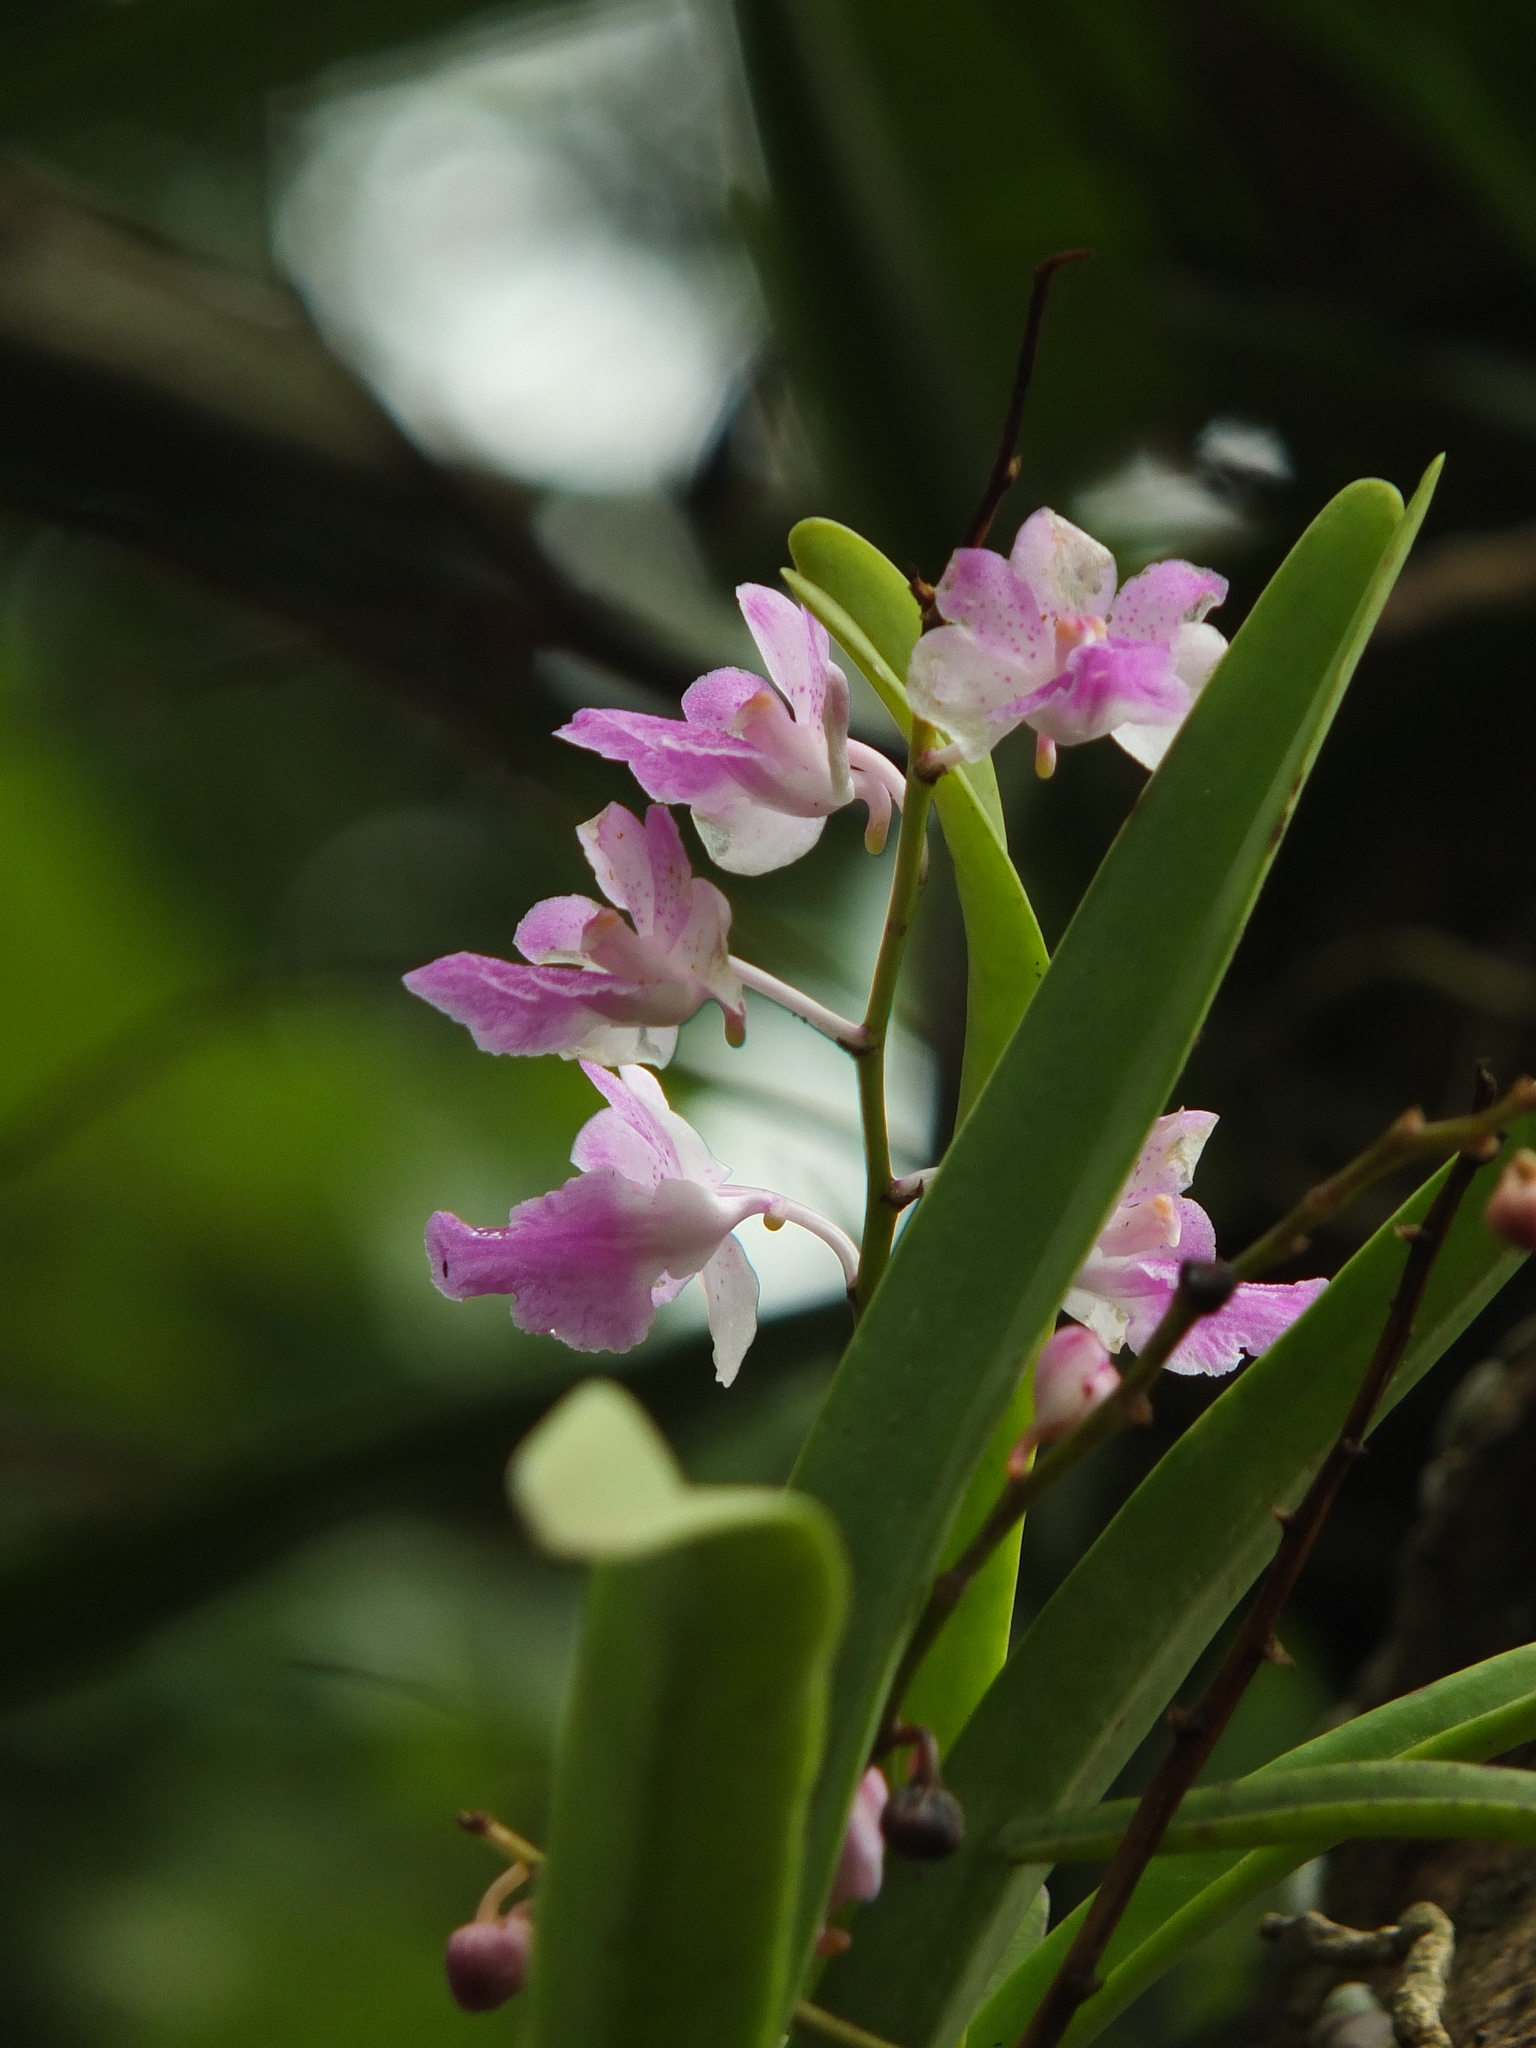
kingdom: Plantae
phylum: Tracheophyta
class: Liliopsida
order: Asparagales
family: Orchidaceae
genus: Aerides
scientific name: Aerides maculosa
